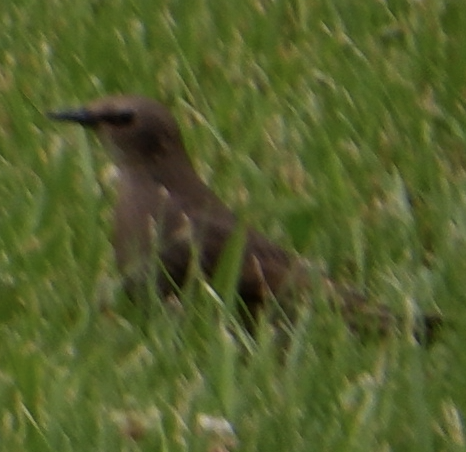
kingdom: Animalia
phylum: Chordata
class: Aves
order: Passeriformes
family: Sturnidae
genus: Sturnus
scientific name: Sturnus vulgaris
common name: Common starling
